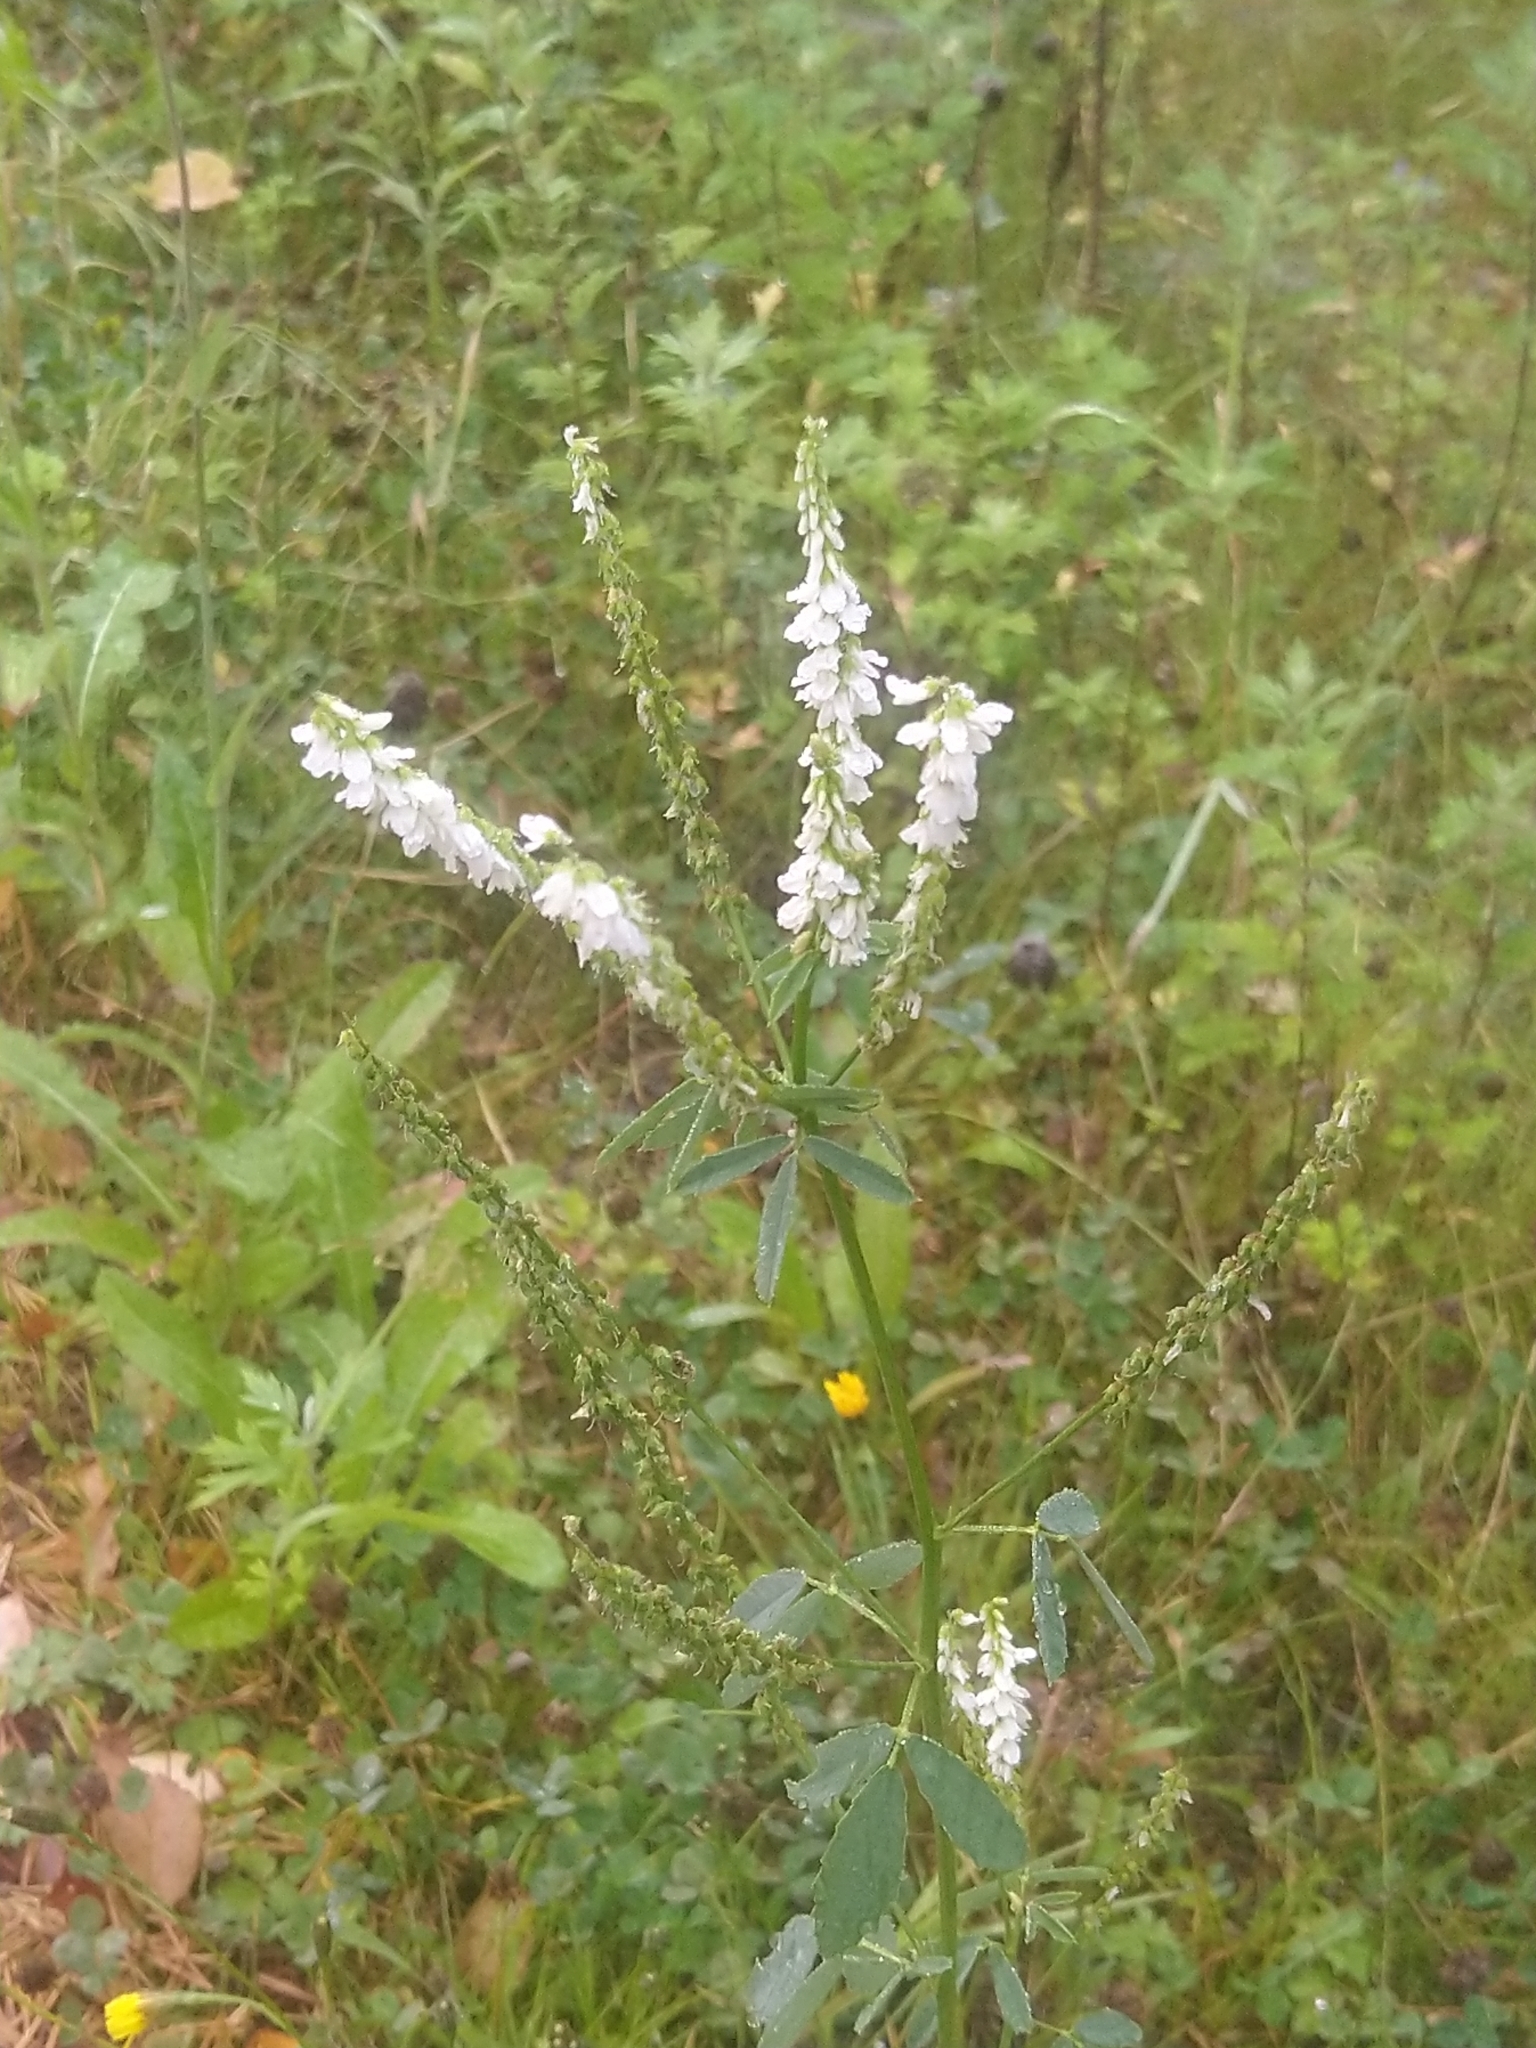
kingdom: Plantae
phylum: Tracheophyta
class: Magnoliopsida
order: Fabales
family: Fabaceae
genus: Melilotus
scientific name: Melilotus albus
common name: White melilot
